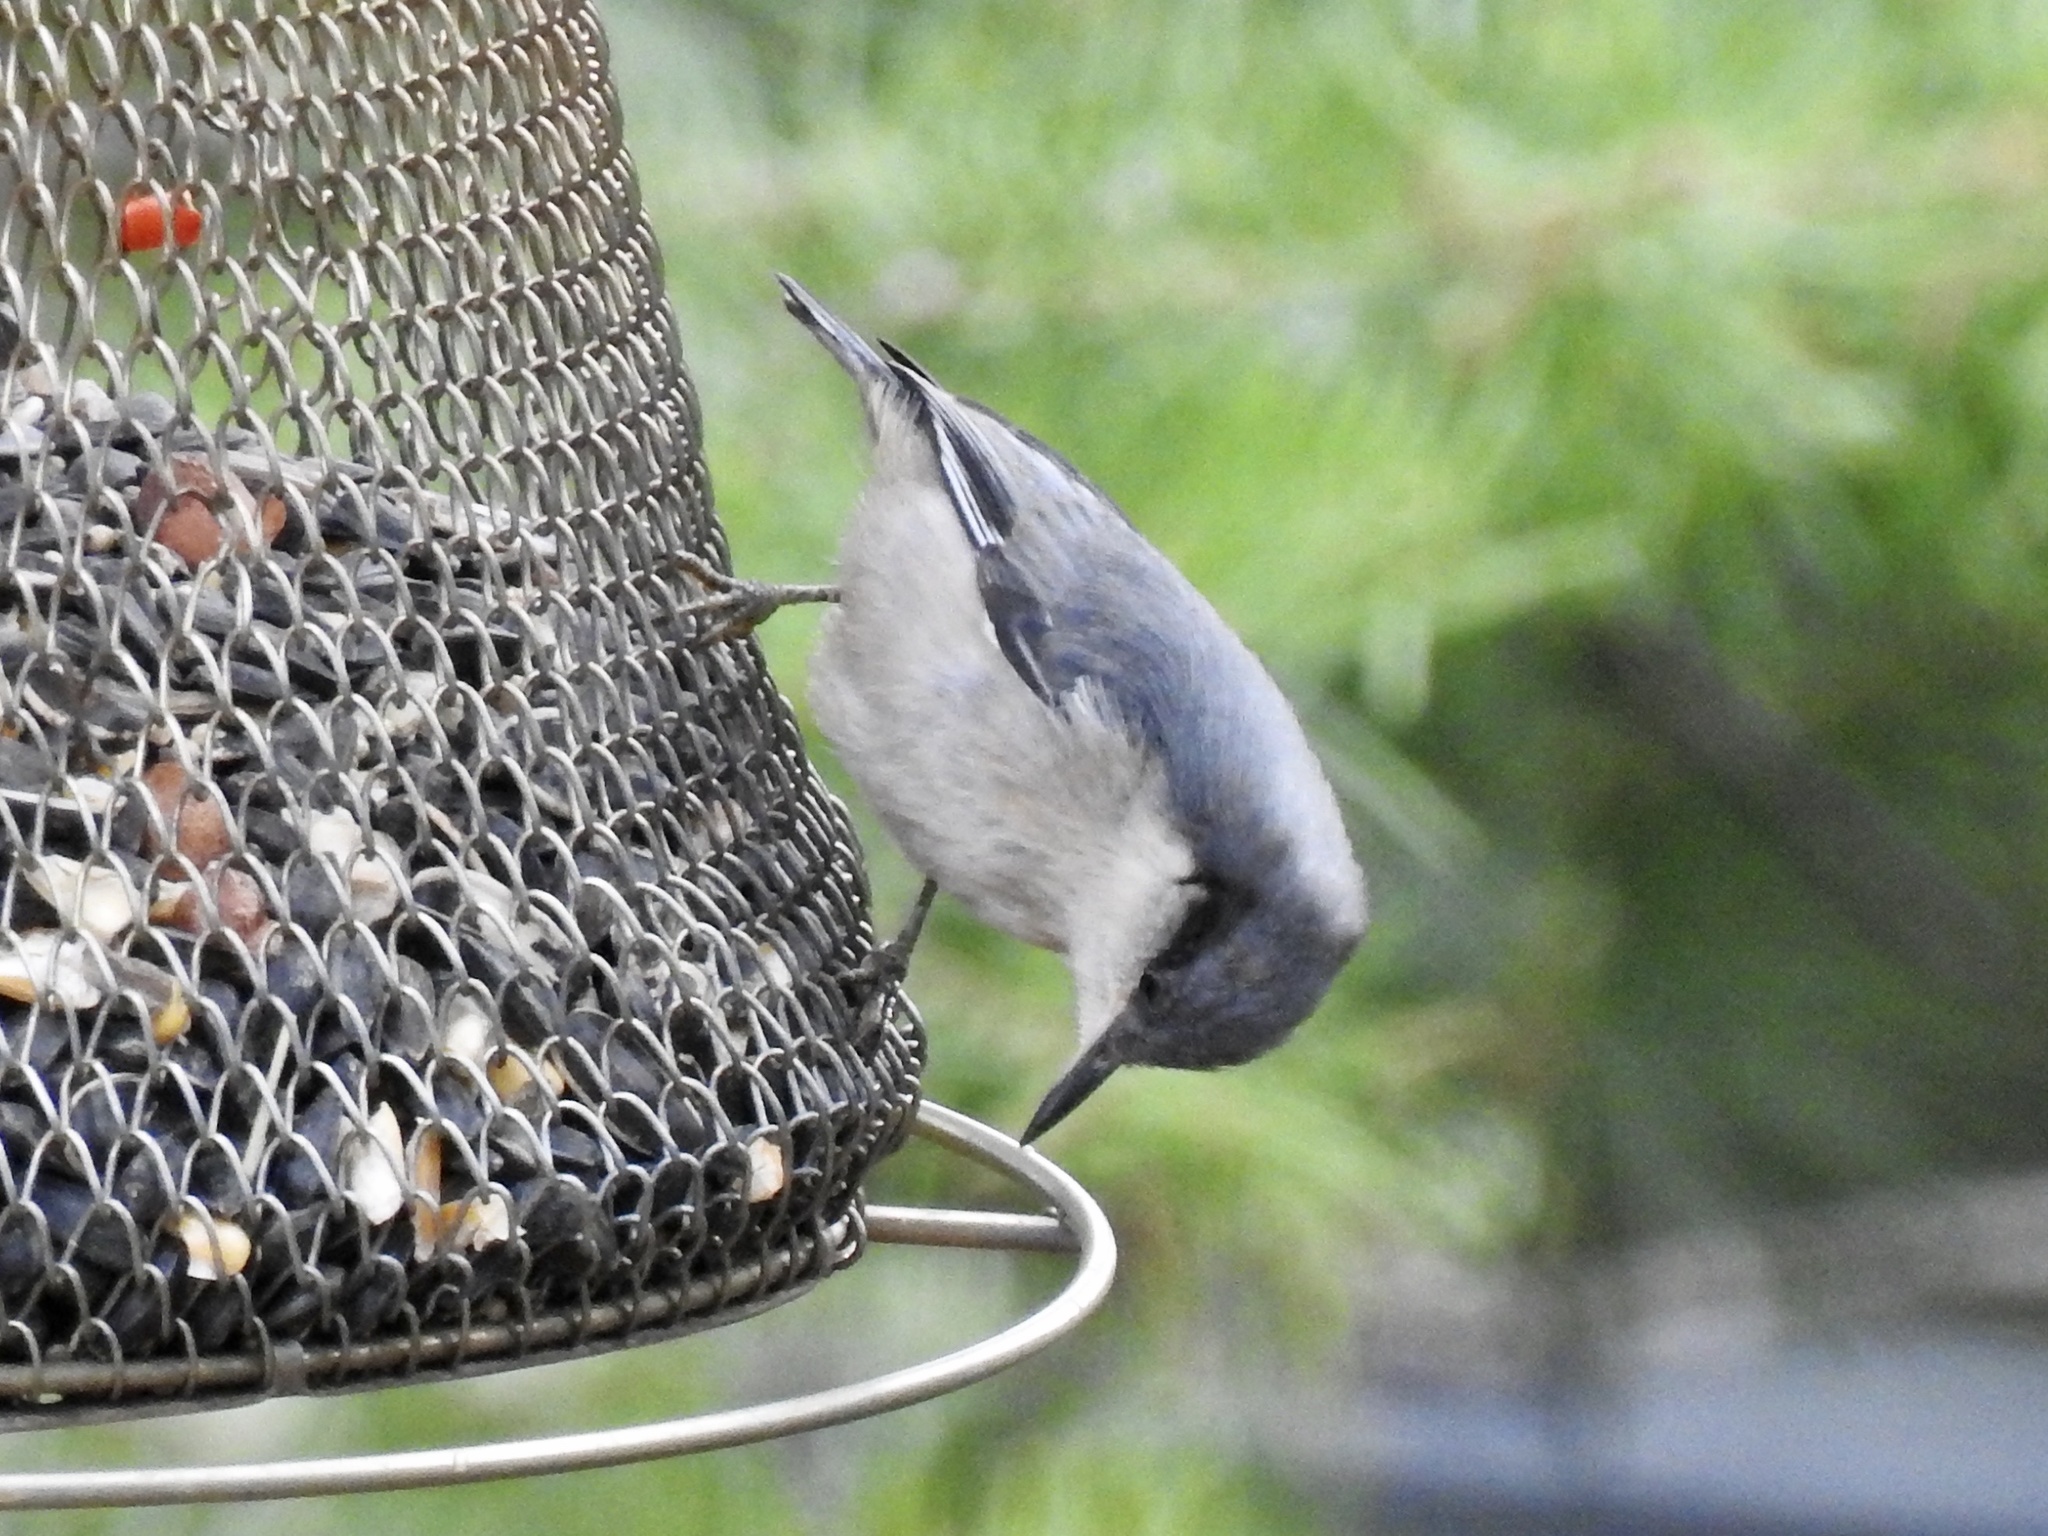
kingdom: Animalia
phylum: Chordata
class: Aves
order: Passeriformes
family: Sittidae
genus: Sitta
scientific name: Sitta pygmaea
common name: Pygmy nuthatch
